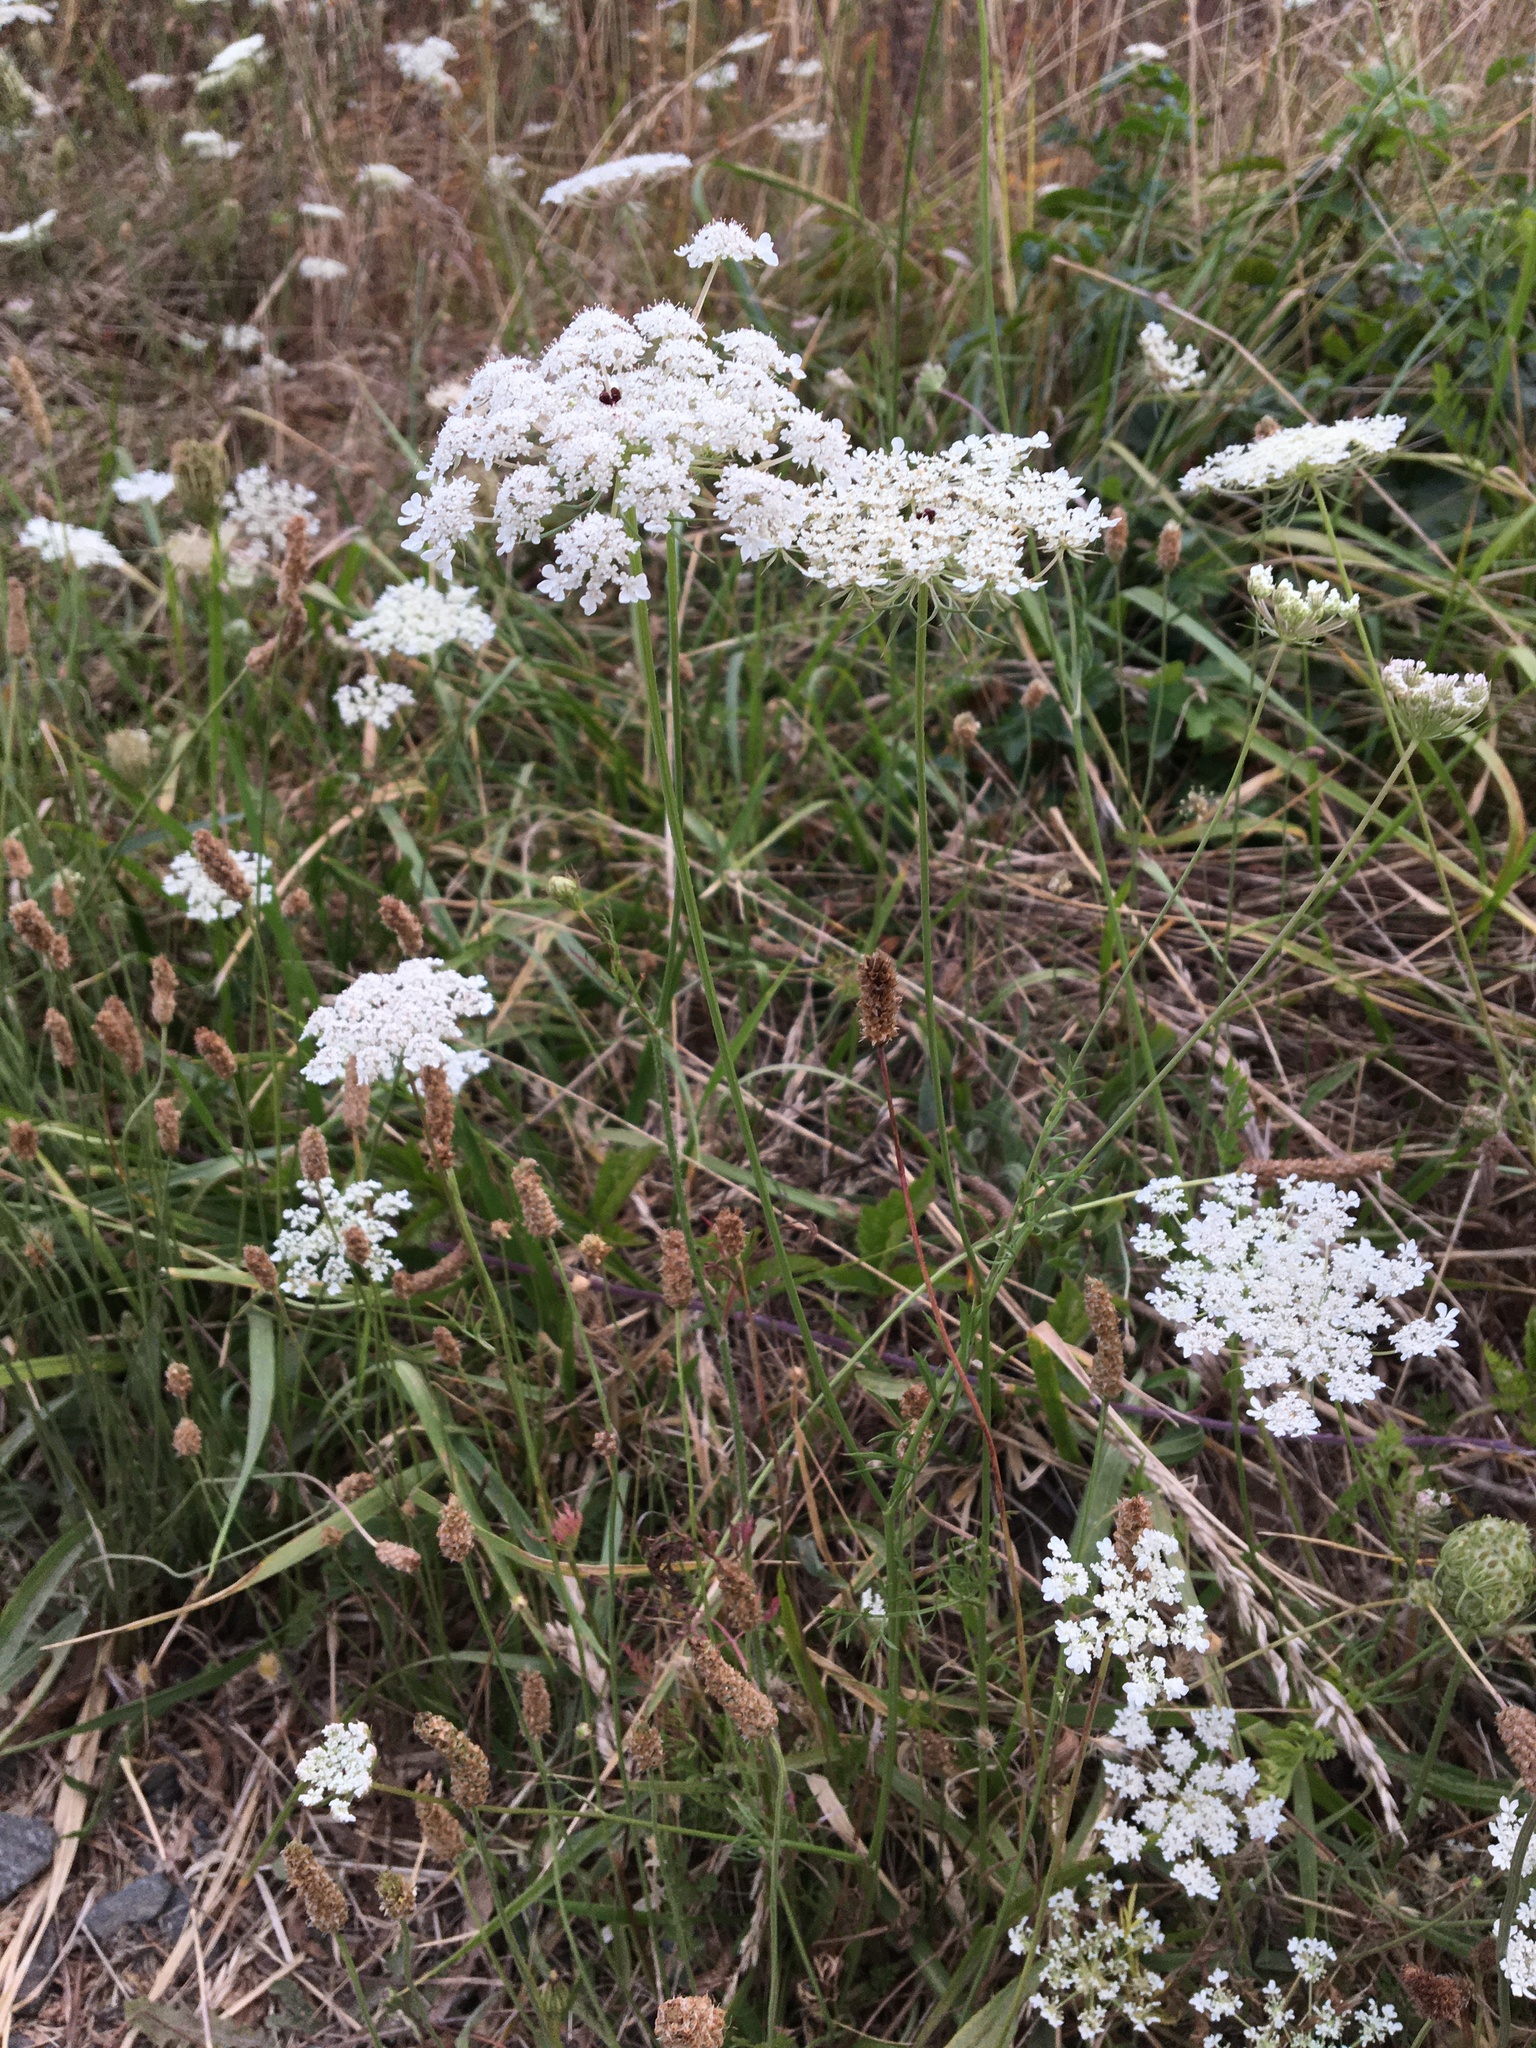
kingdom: Plantae
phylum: Tracheophyta
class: Magnoliopsida
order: Apiales
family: Apiaceae
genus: Daucus
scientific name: Daucus carota
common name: Wild carrot
